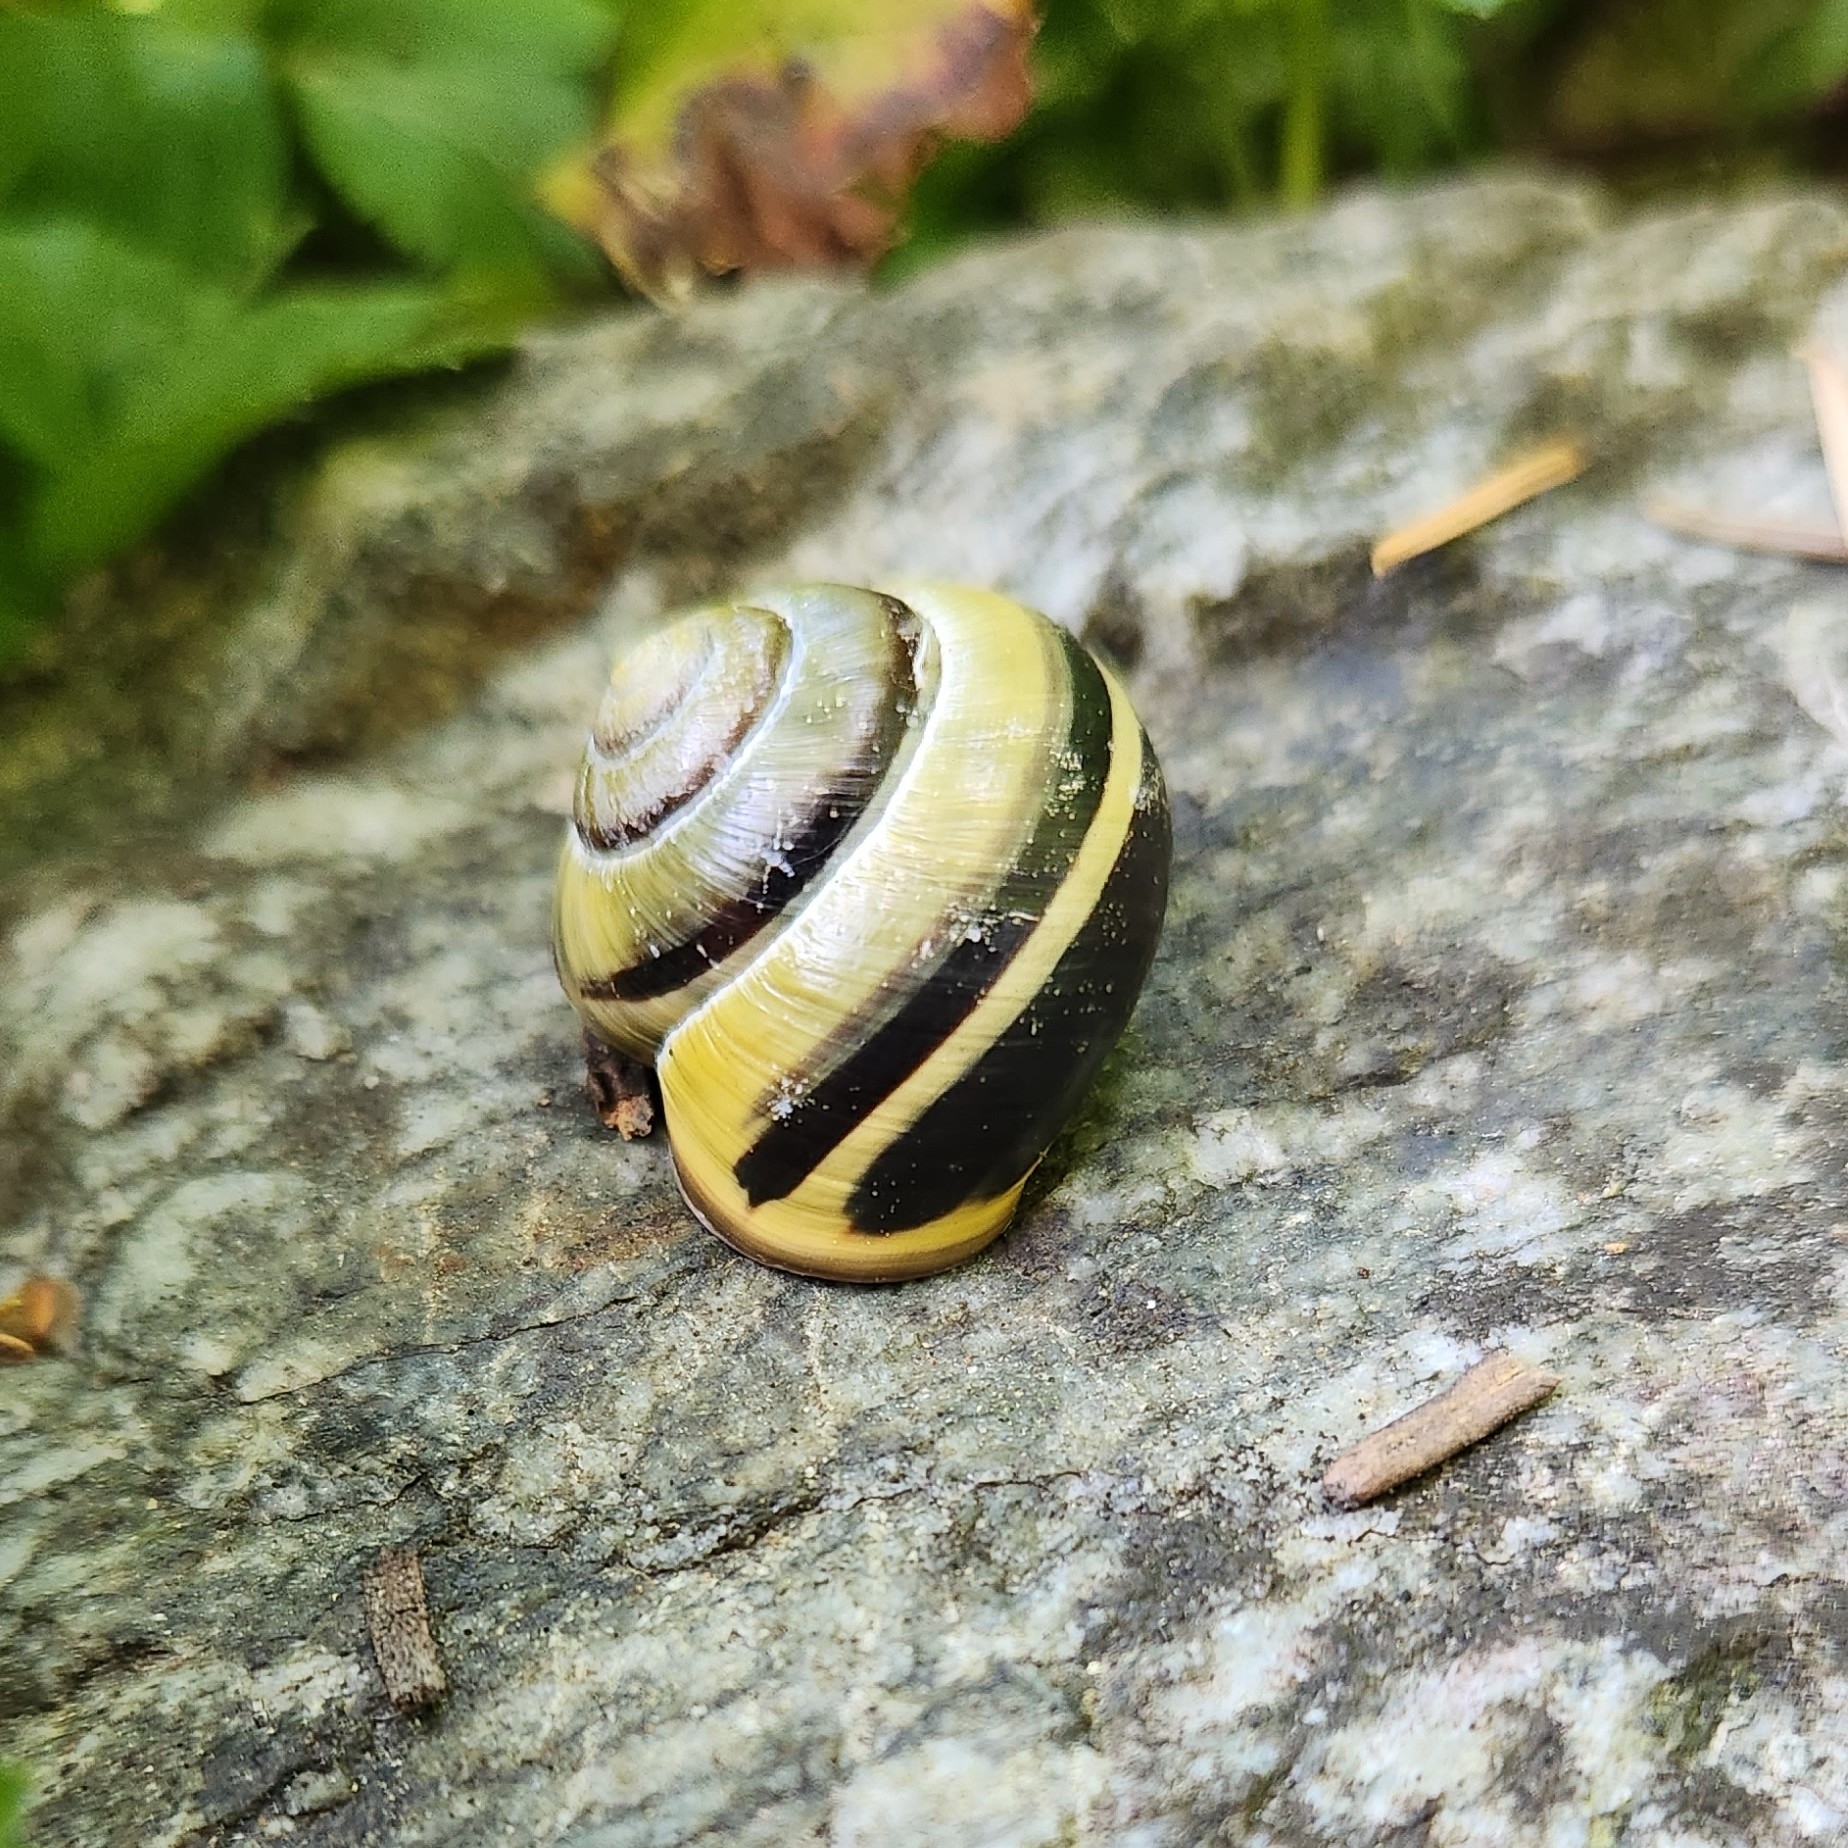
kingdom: Animalia
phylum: Mollusca
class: Gastropoda
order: Stylommatophora
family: Helicidae
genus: Cepaea
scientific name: Cepaea nemoralis
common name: Grovesnail
